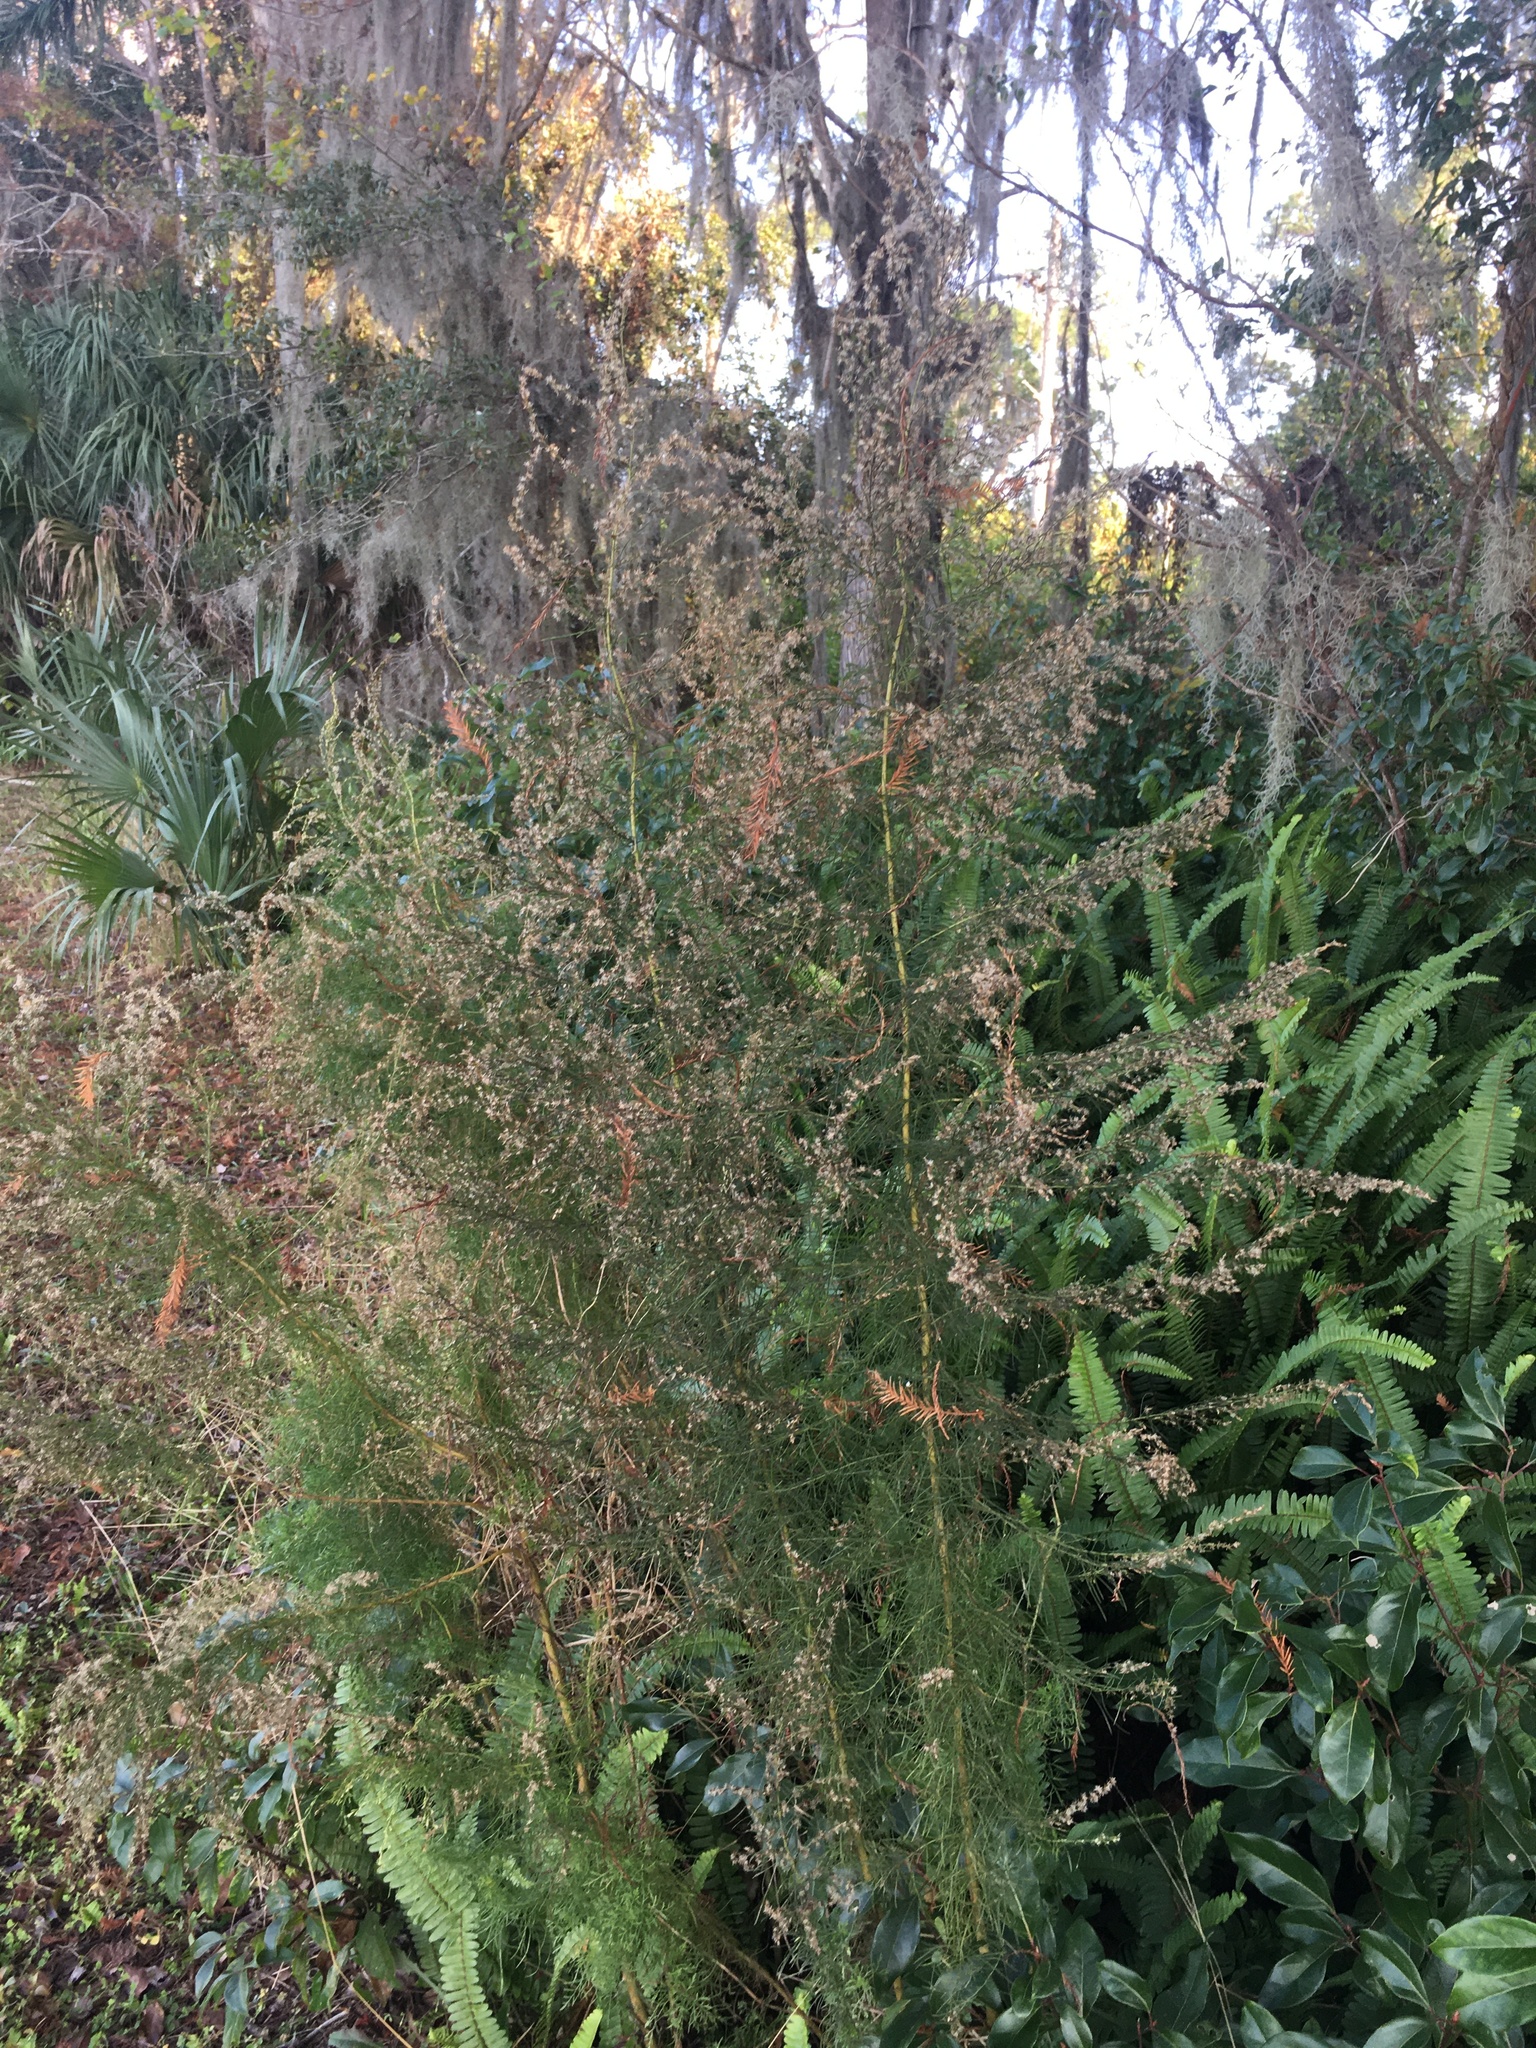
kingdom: Plantae
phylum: Tracheophyta
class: Magnoliopsida
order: Asterales
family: Asteraceae
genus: Eupatorium
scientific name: Eupatorium capillifolium
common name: Dog-fennel
